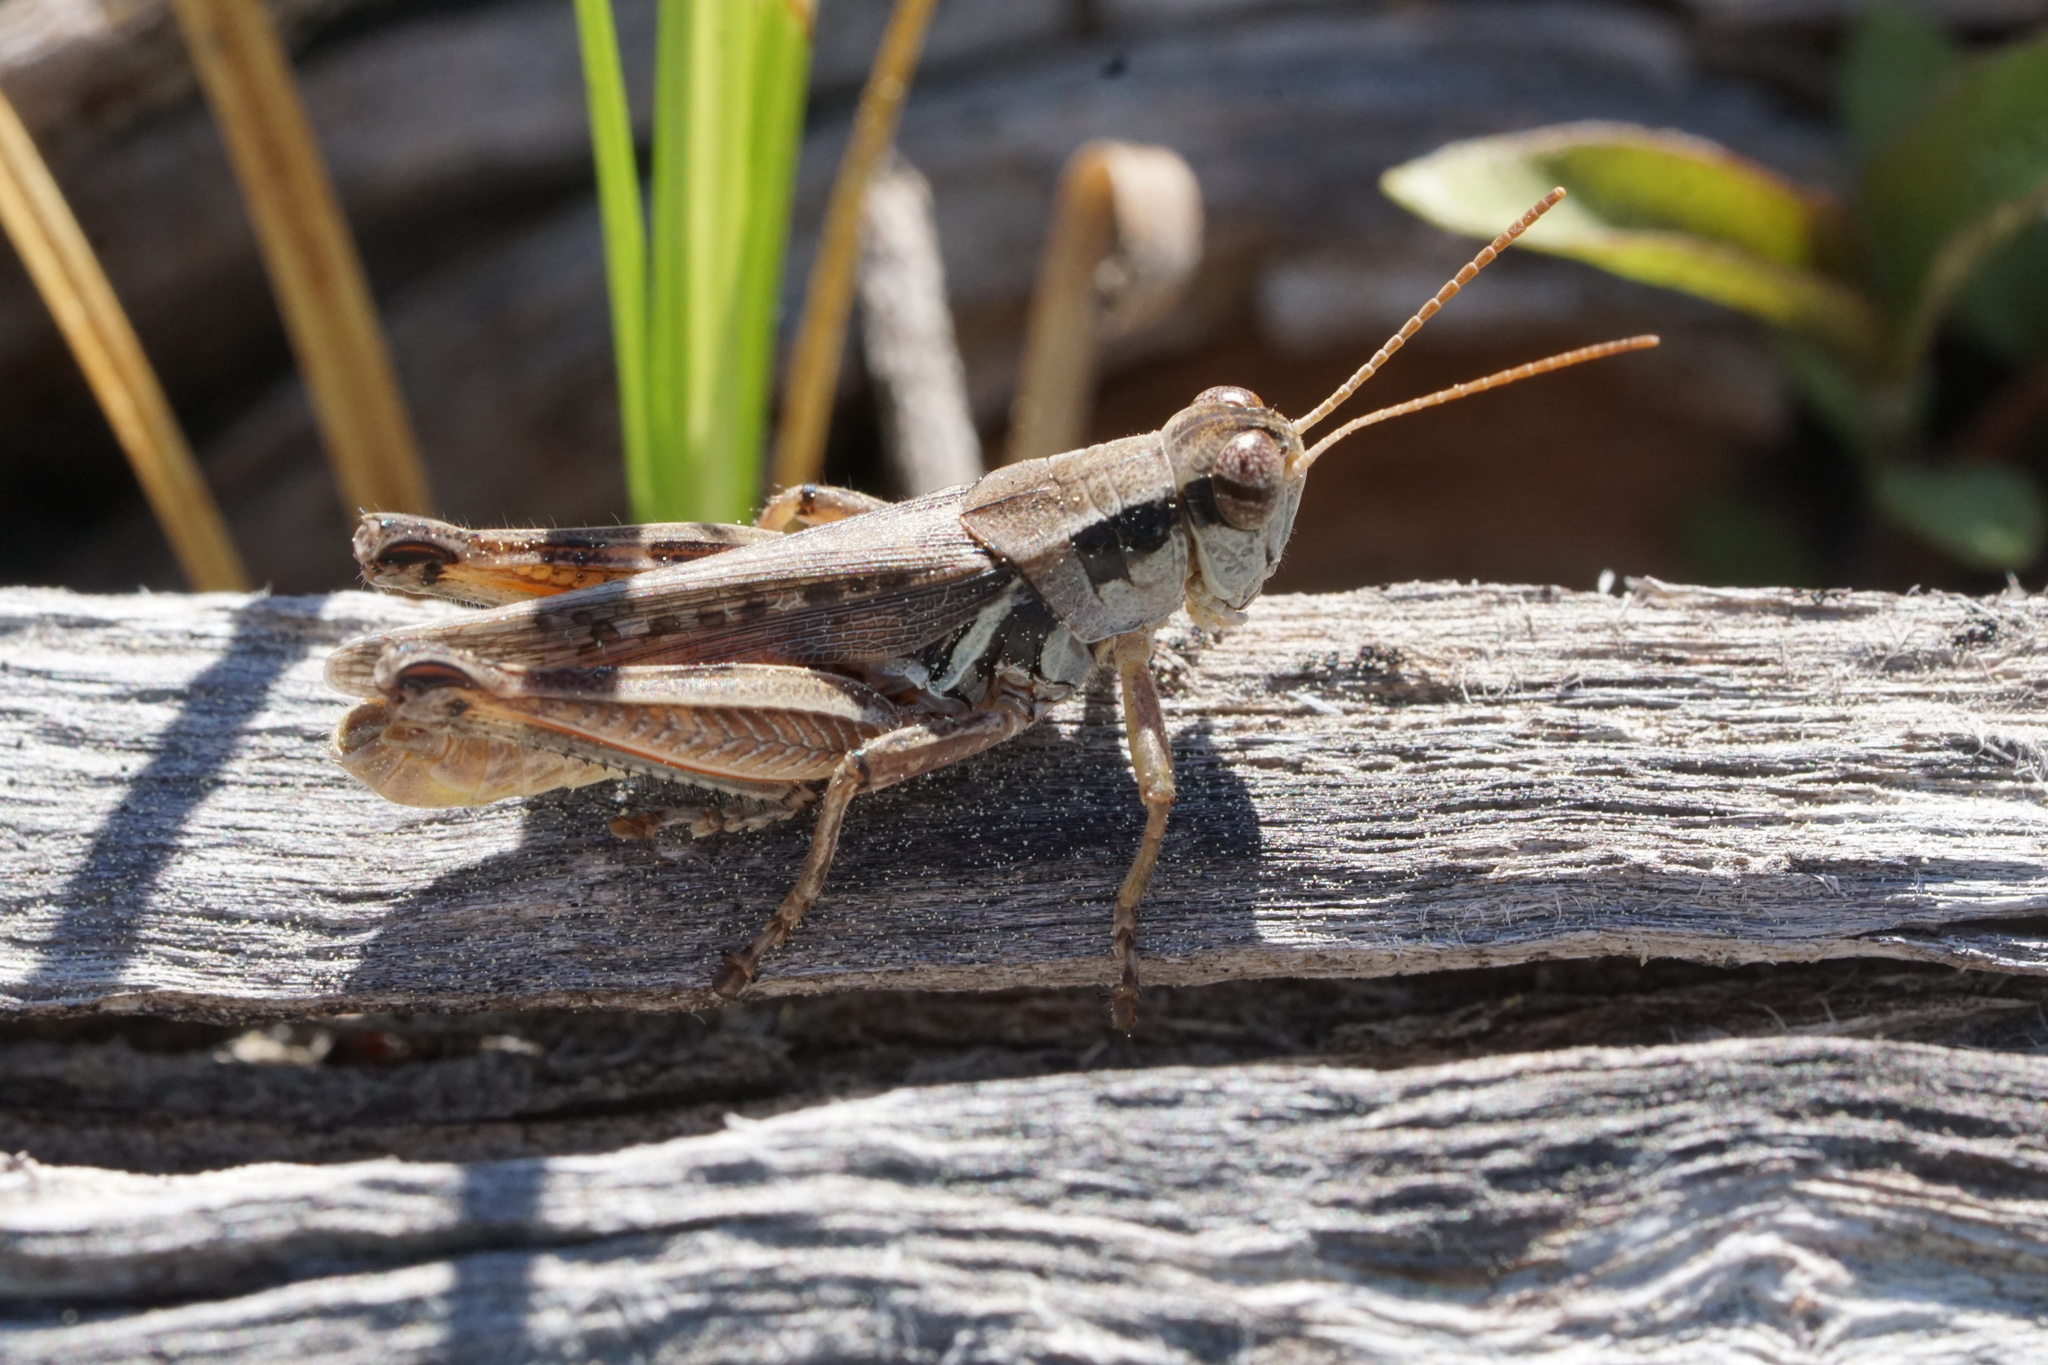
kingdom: Animalia
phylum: Arthropoda
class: Insecta
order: Orthoptera
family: Acrididae
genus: Melanoplus
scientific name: Melanoplus confusus
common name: Little pasture locust
